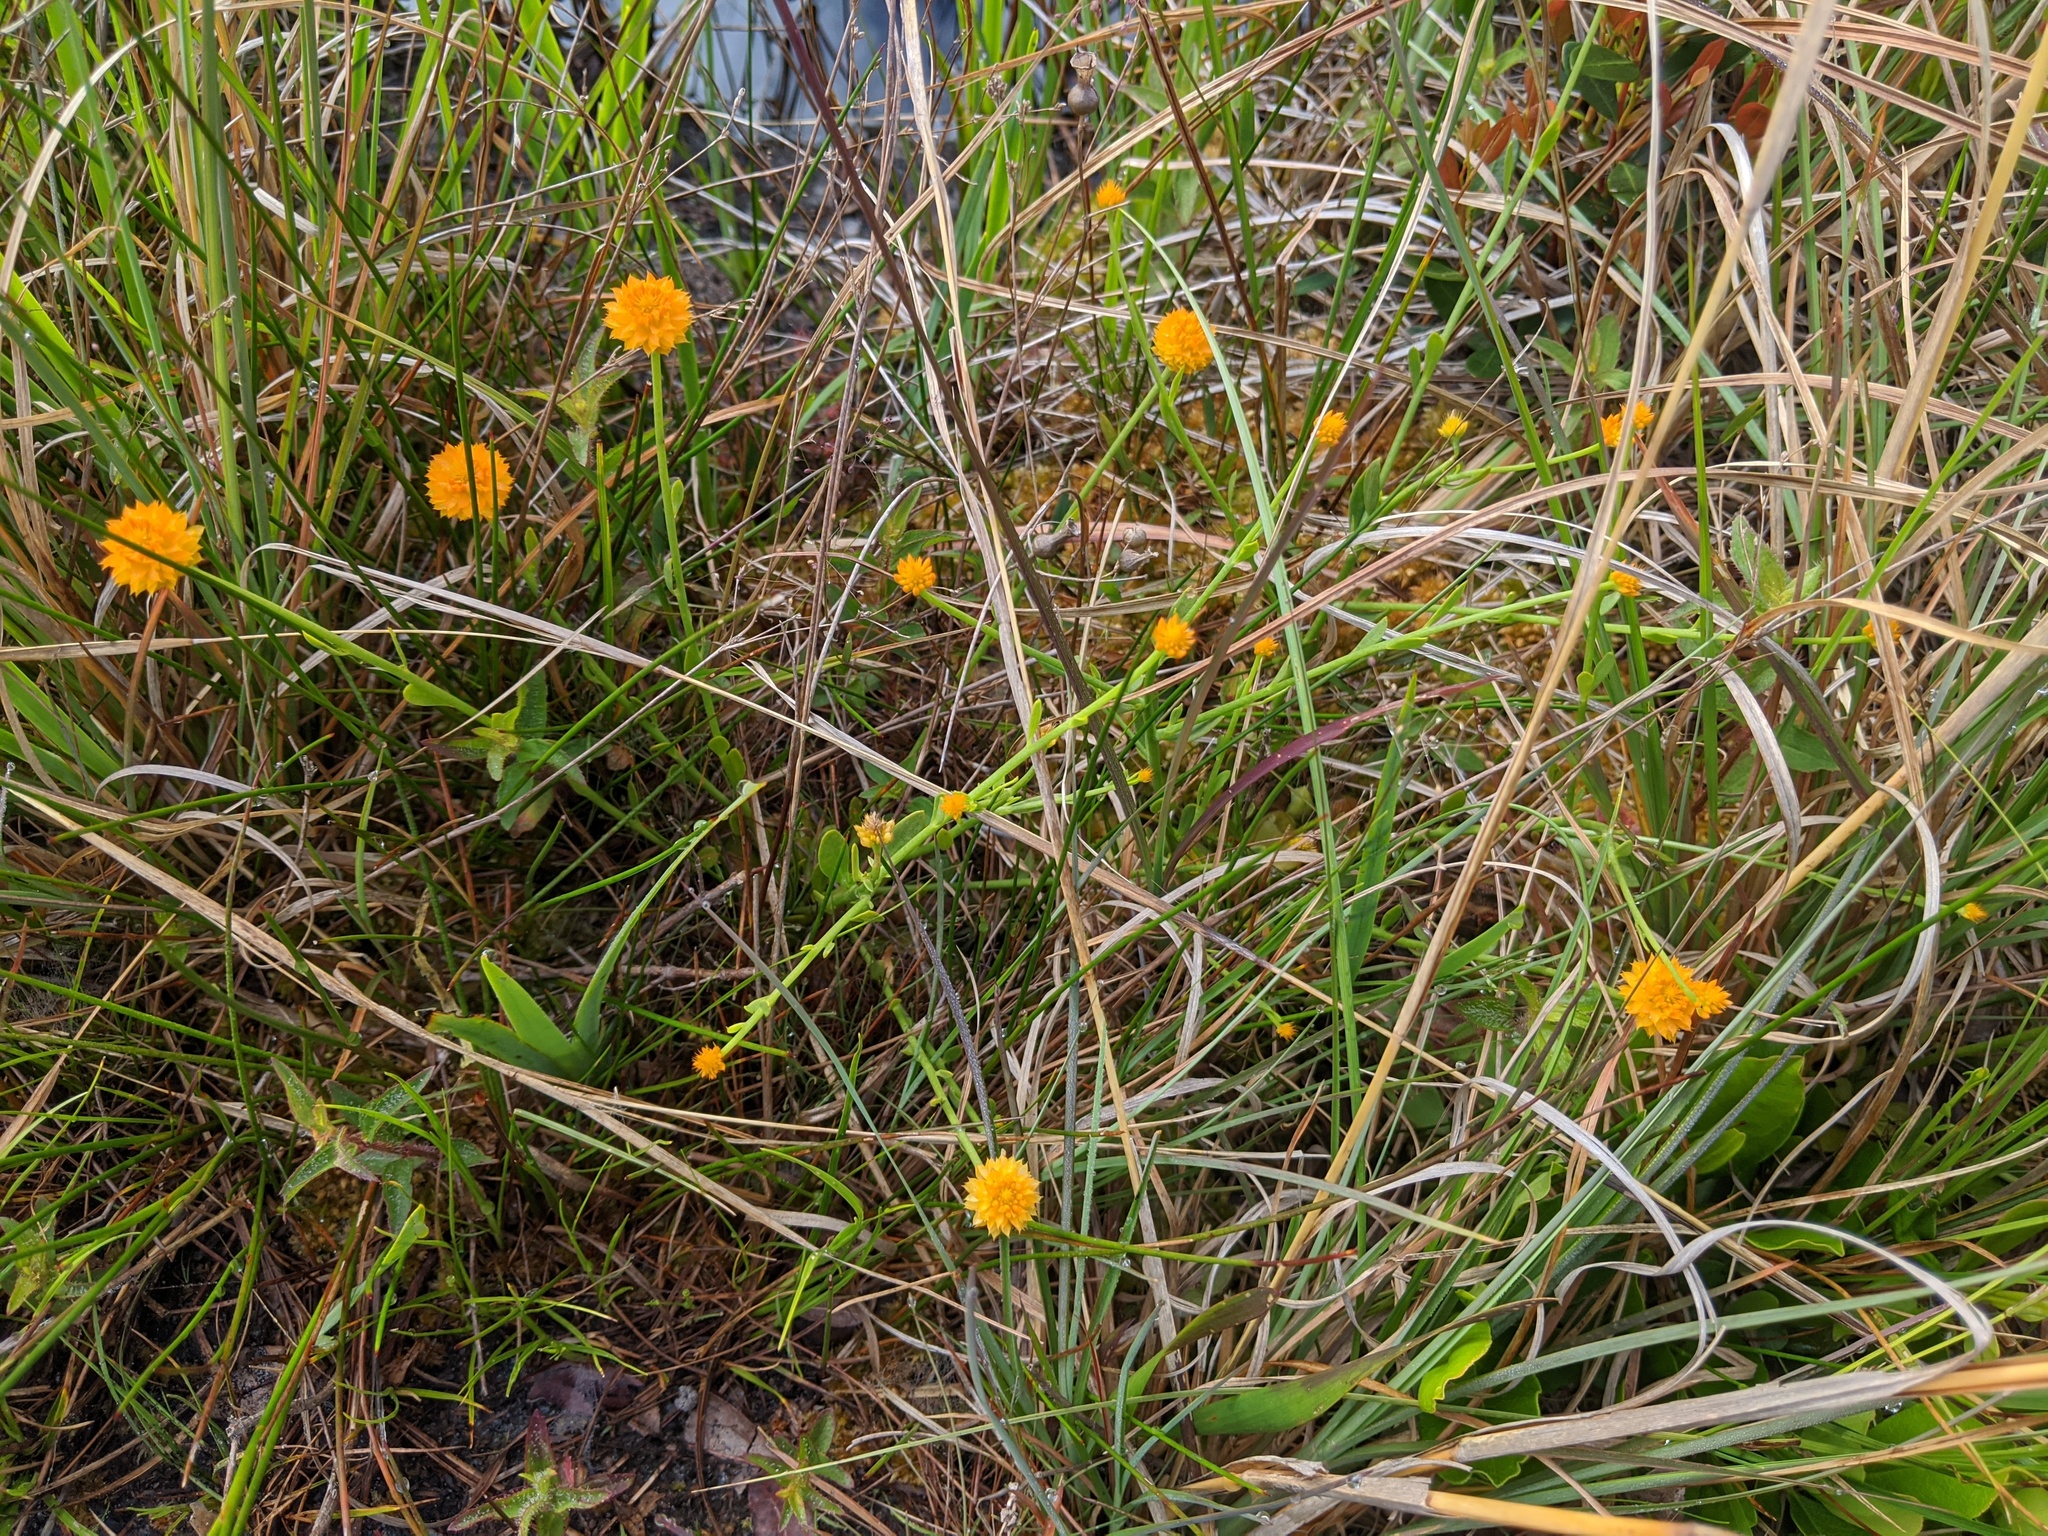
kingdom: Plantae
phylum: Tracheophyta
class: Magnoliopsida
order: Fabales
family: Polygalaceae
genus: Polygala
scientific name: Polygala lutea
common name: Orange milkwort
